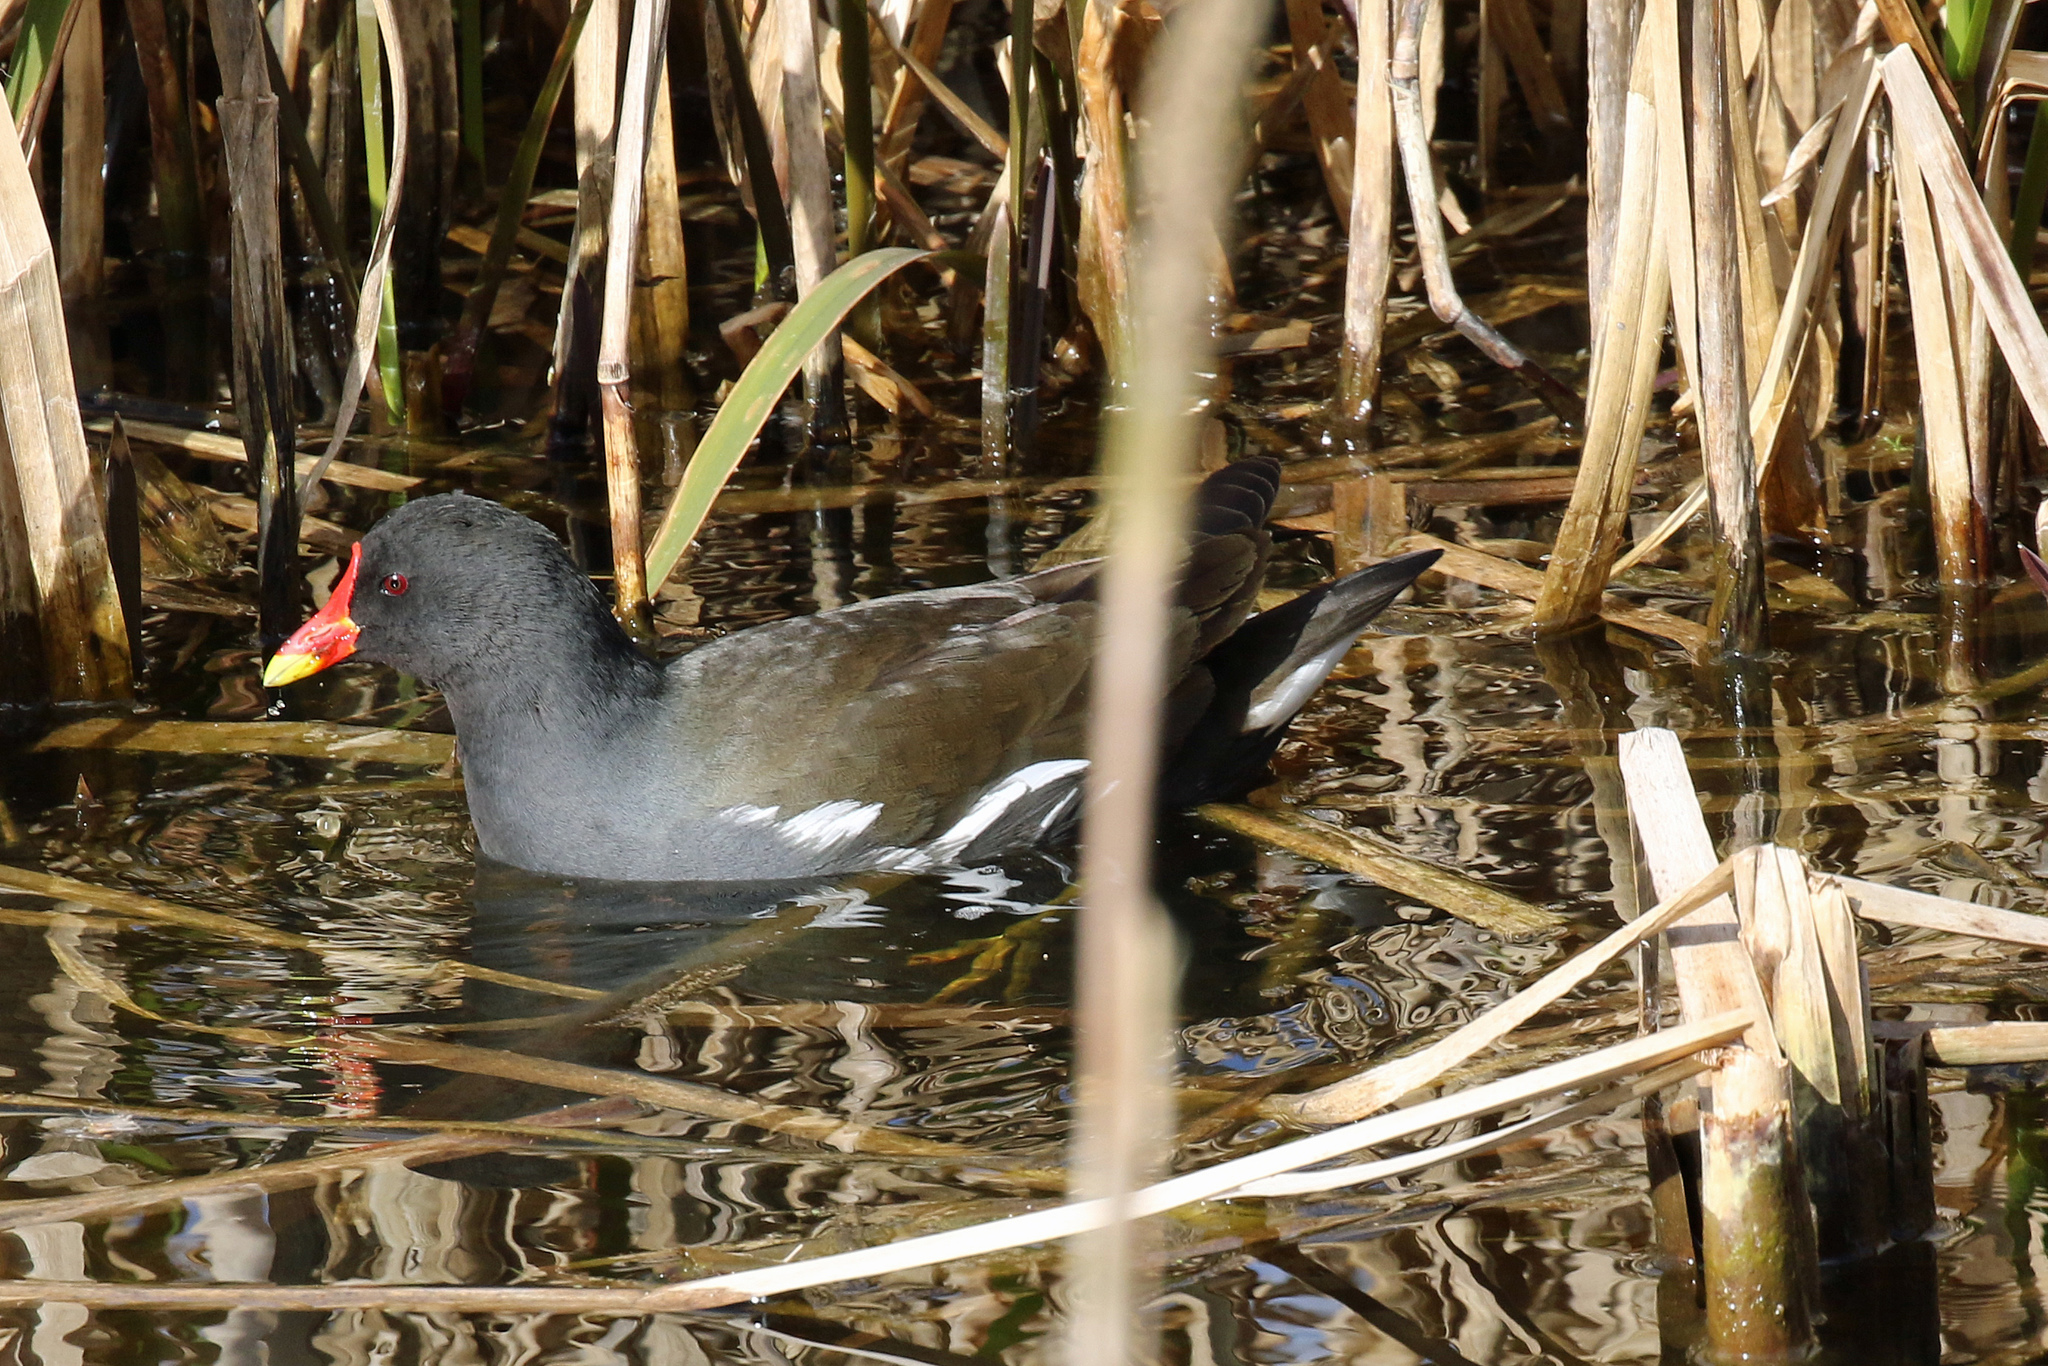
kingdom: Animalia
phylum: Chordata
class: Aves
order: Gruiformes
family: Rallidae
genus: Gallinula
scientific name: Gallinula chloropus
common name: Common moorhen
